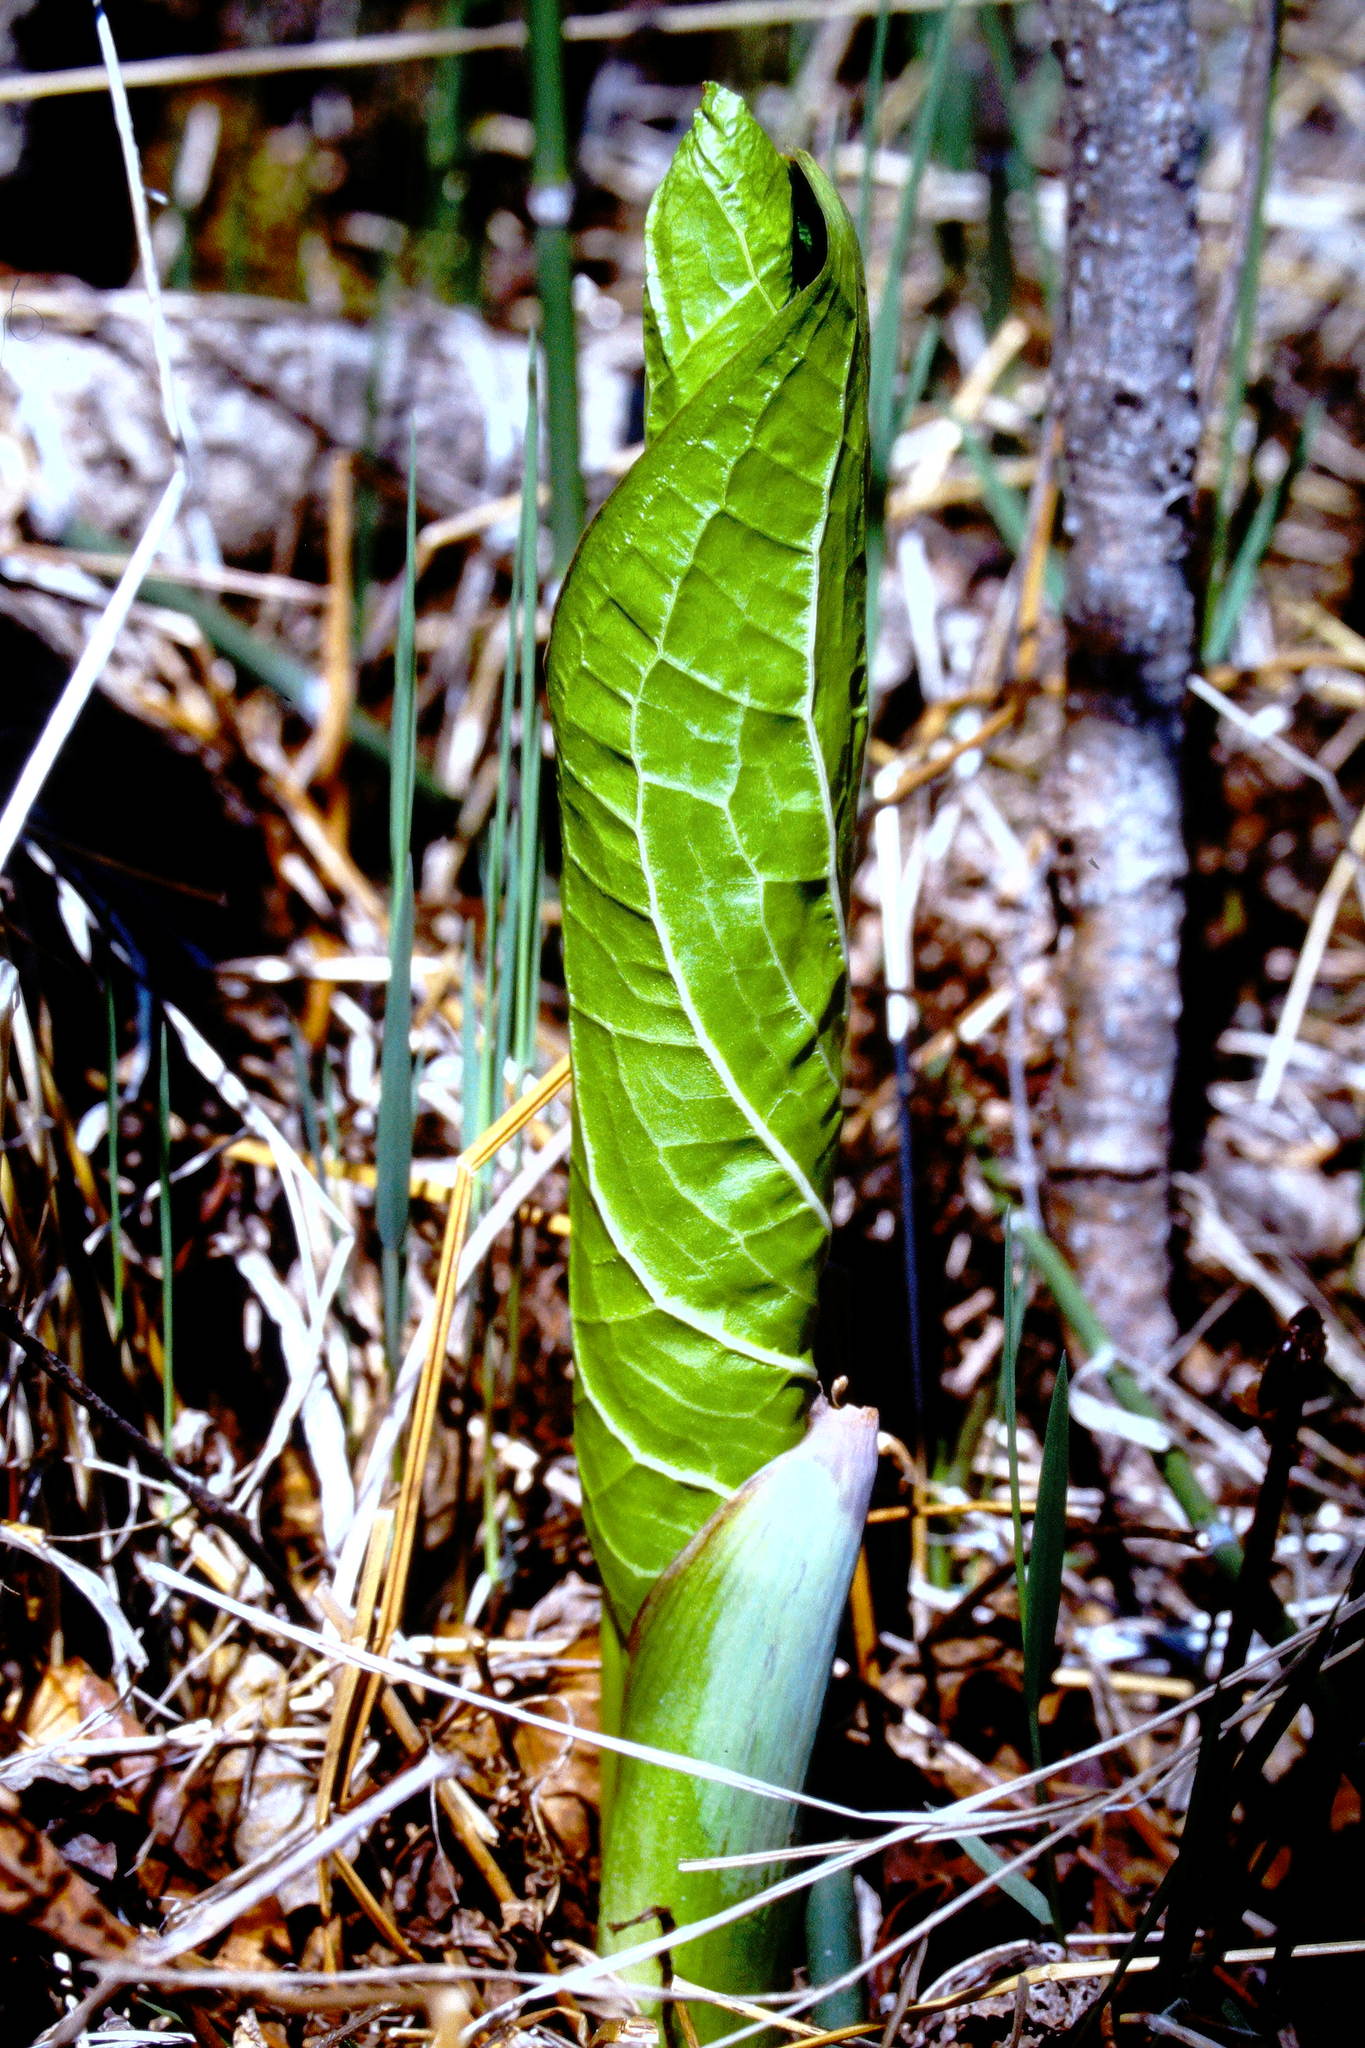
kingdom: Plantae
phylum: Tracheophyta
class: Liliopsida
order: Alismatales
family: Araceae
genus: Symplocarpus
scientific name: Symplocarpus foetidus
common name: Eastern skunk cabbage
